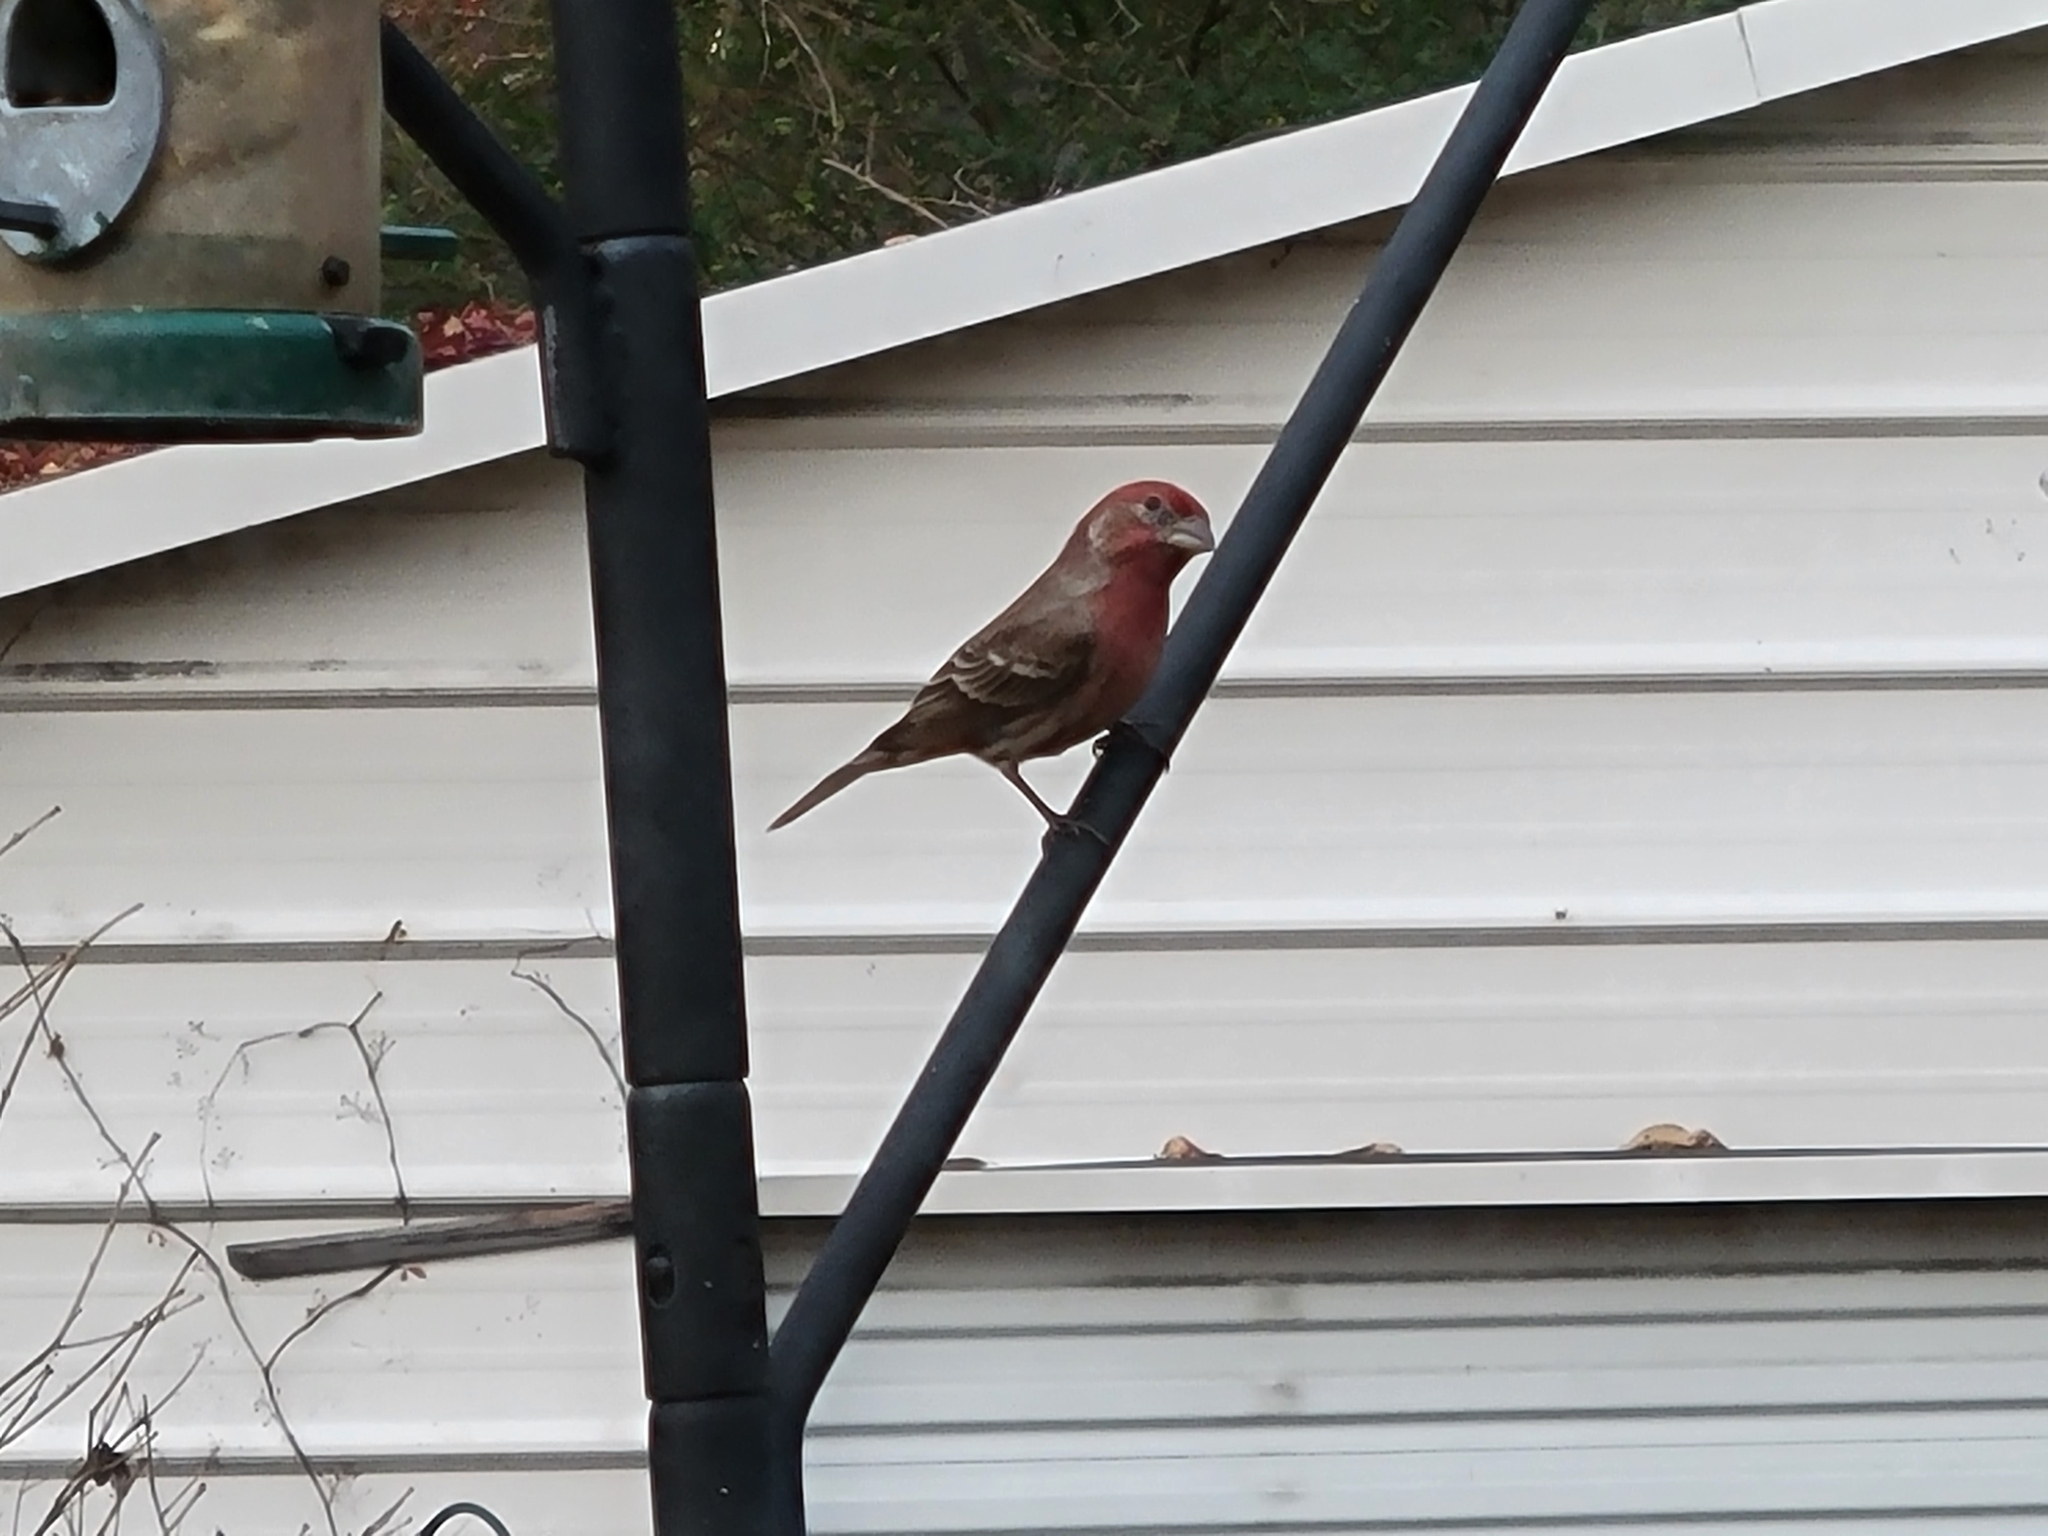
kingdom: Animalia
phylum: Chordata
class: Aves
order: Passeriformes
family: Fringillidae
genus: Haemorhous
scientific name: Haemorhous mexicanus
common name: House finch
